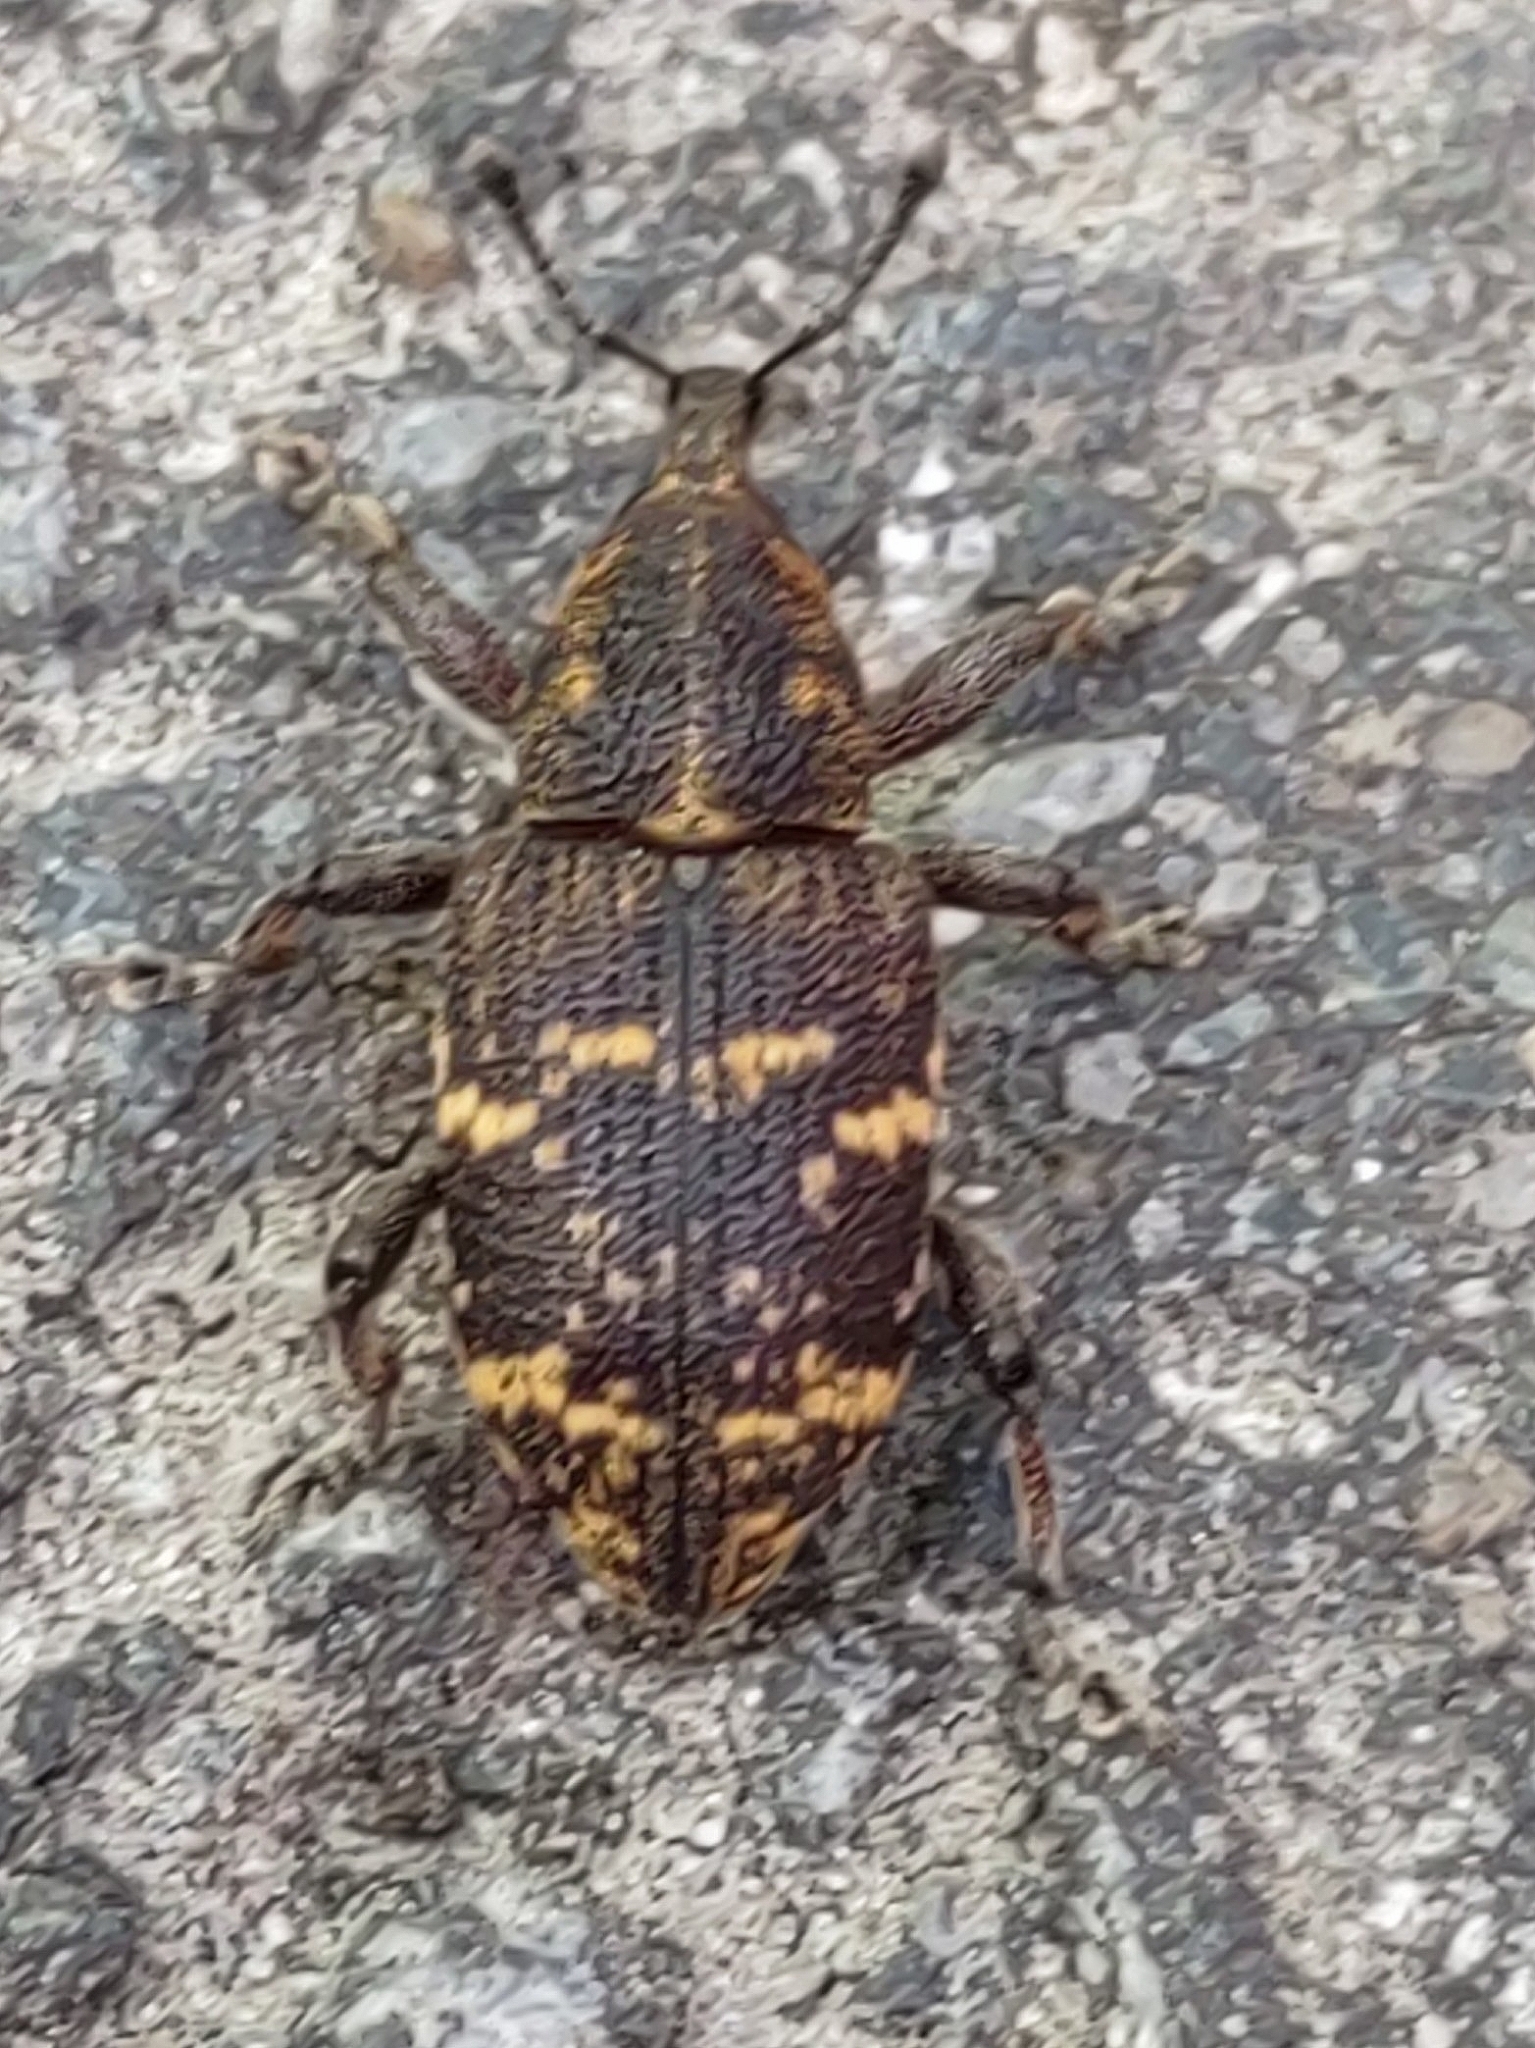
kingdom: Animalia
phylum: Arthropoda
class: Insecta
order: Coleoptera
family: Curculionidae
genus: Hylobius
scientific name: Hylobius abietis
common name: Large pine weevil
